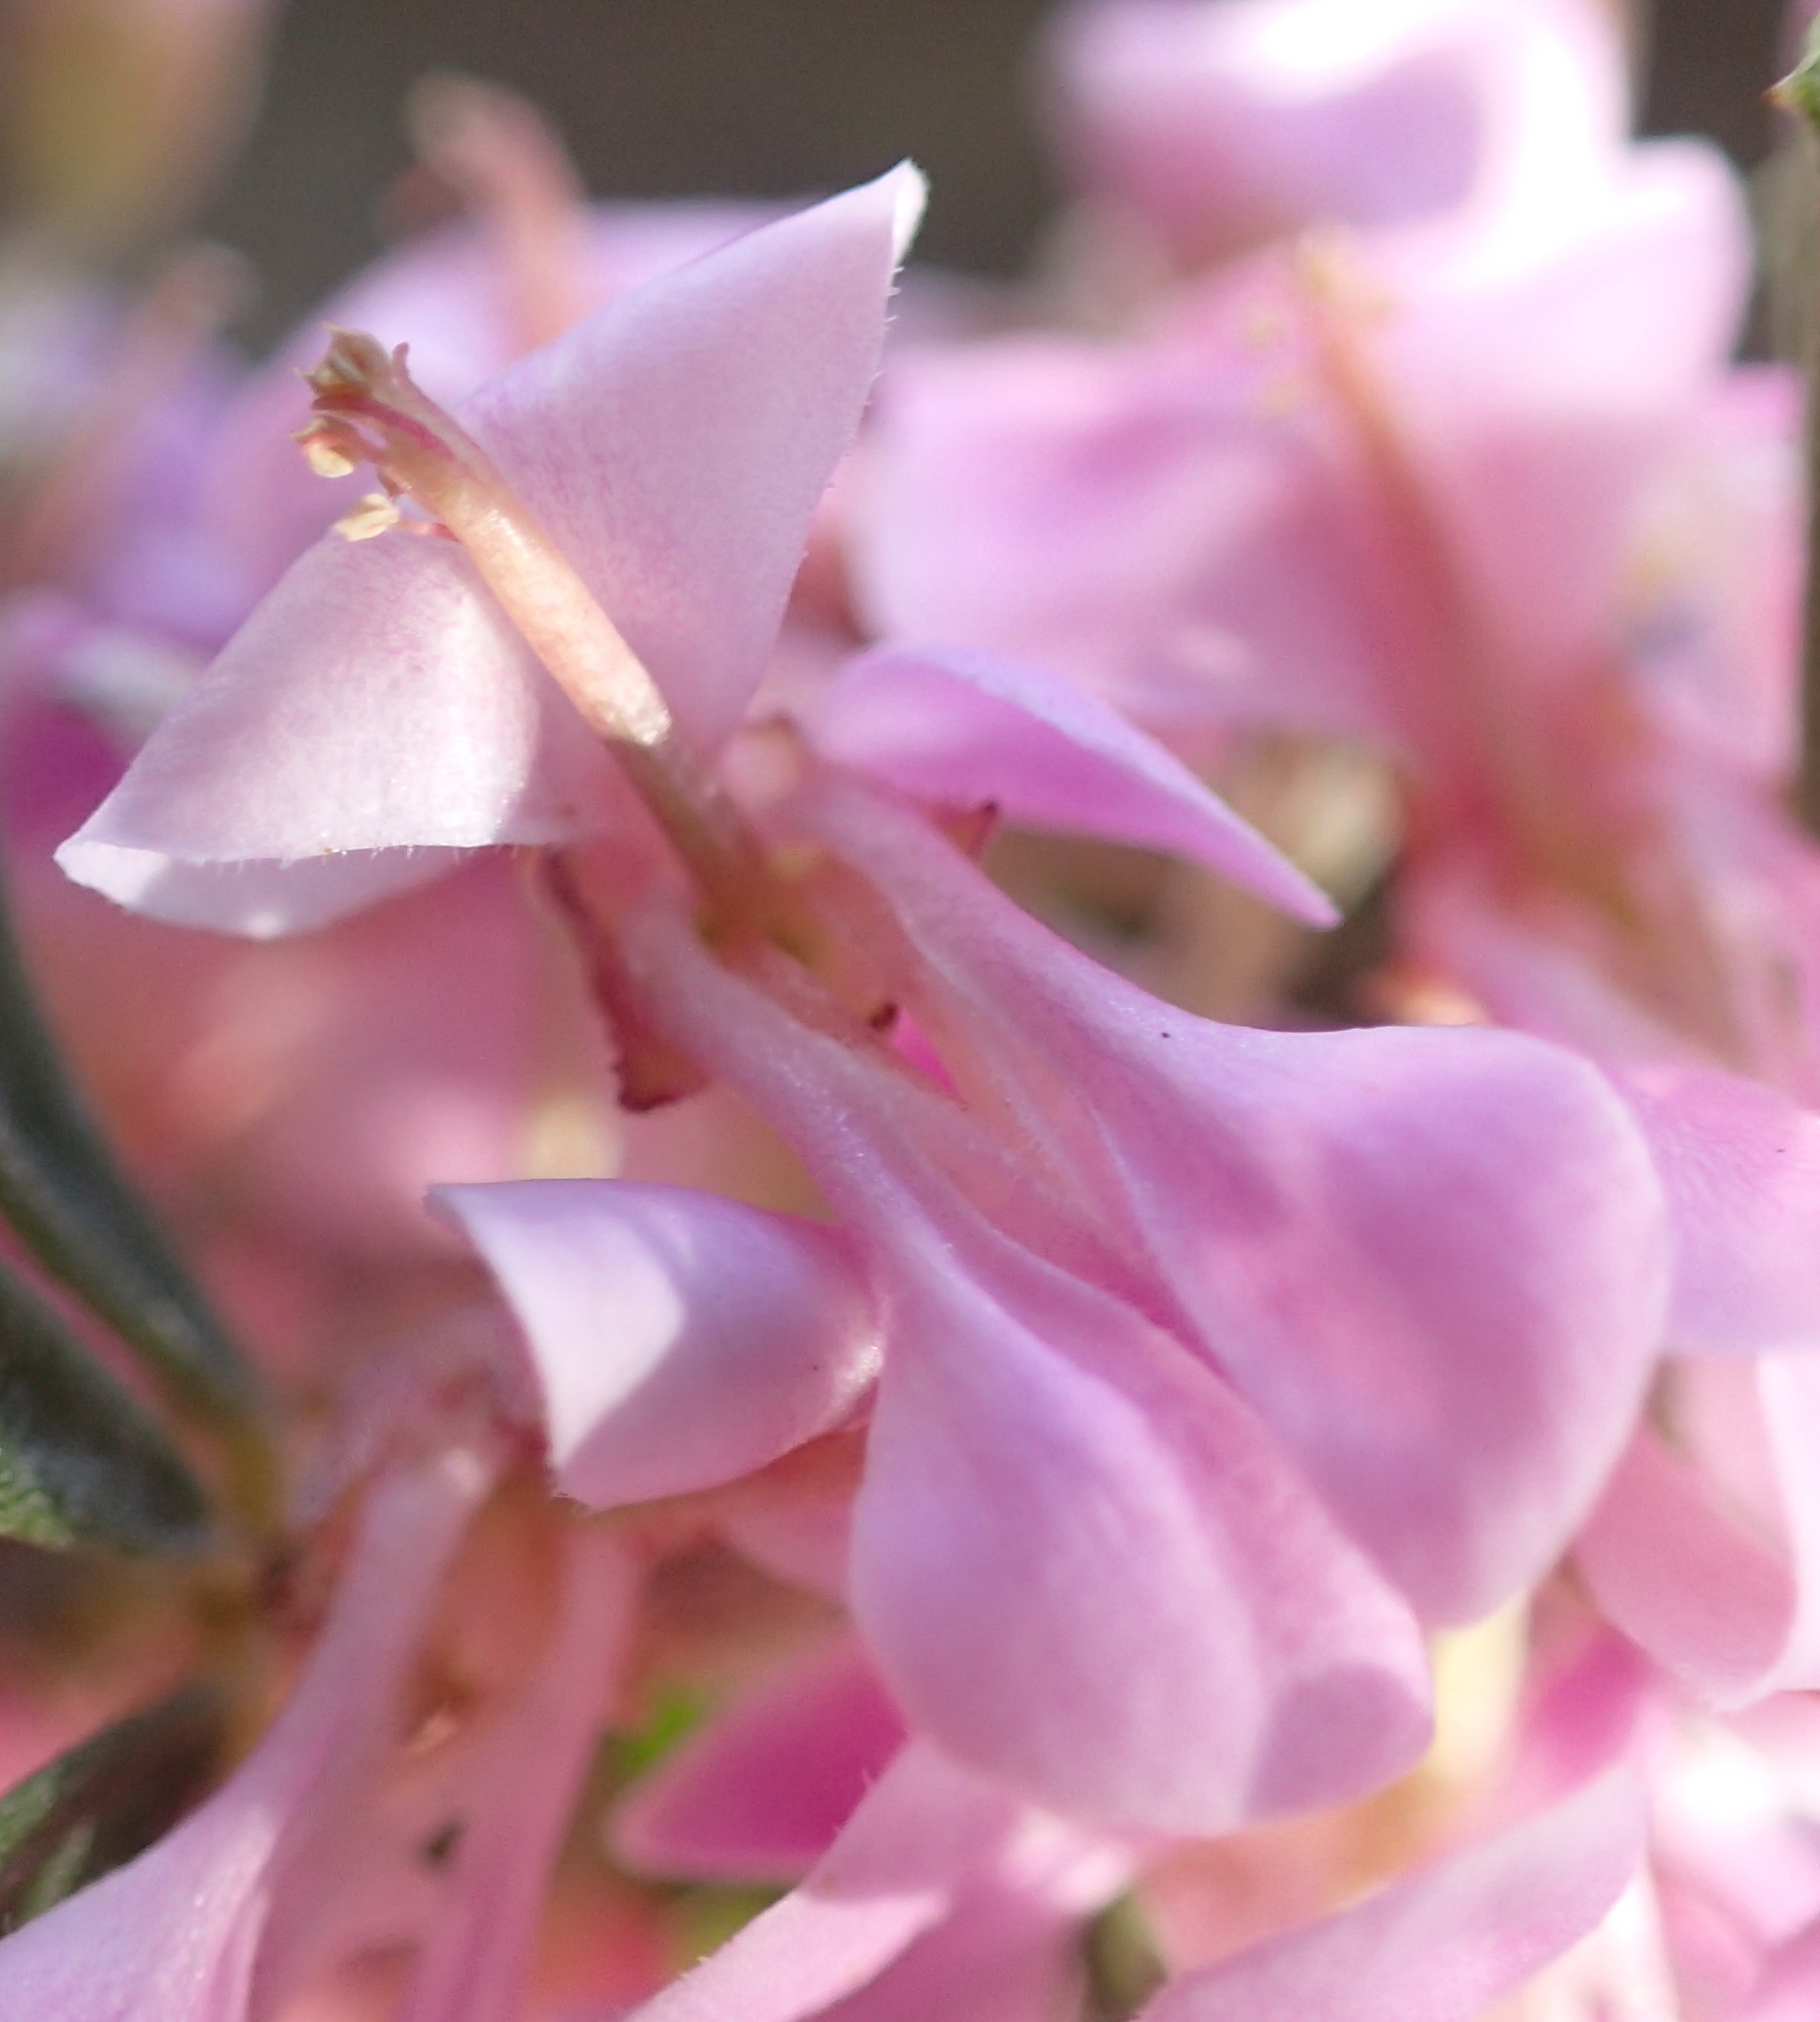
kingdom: Plantae
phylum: Tracheophyta
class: Magnoliopsida
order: Fabales
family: Fabaceae
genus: Indigofera
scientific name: Indigofera flabellata
